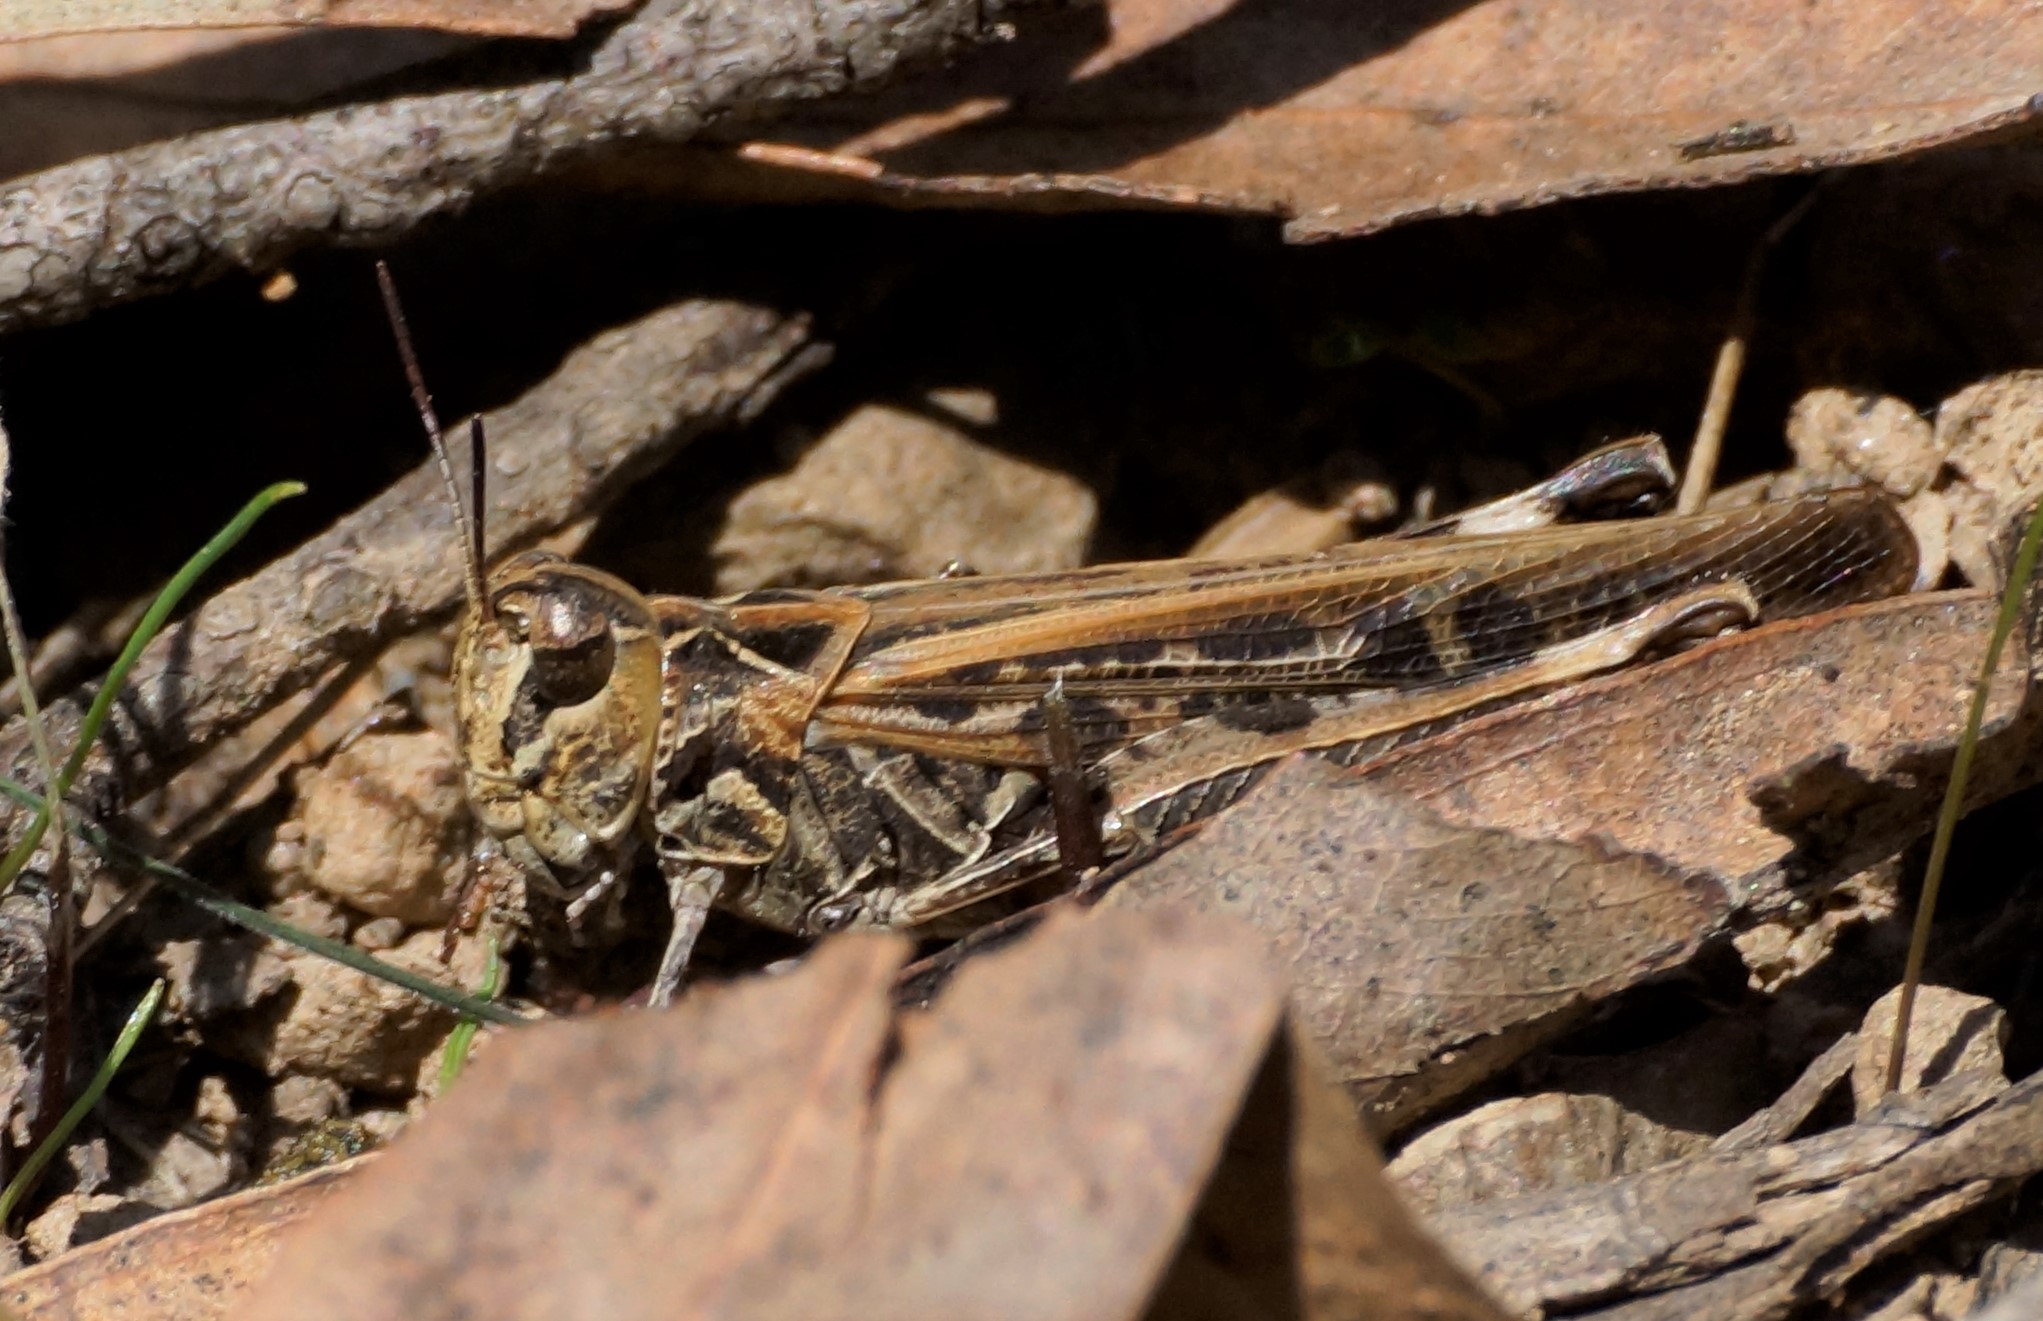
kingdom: Animalia
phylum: Arthropoda
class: Insecta
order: Orthoptera
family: Acrididae
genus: Austroicetes
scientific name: Austroicetes vulgaris
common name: Southeastern austroicetes
